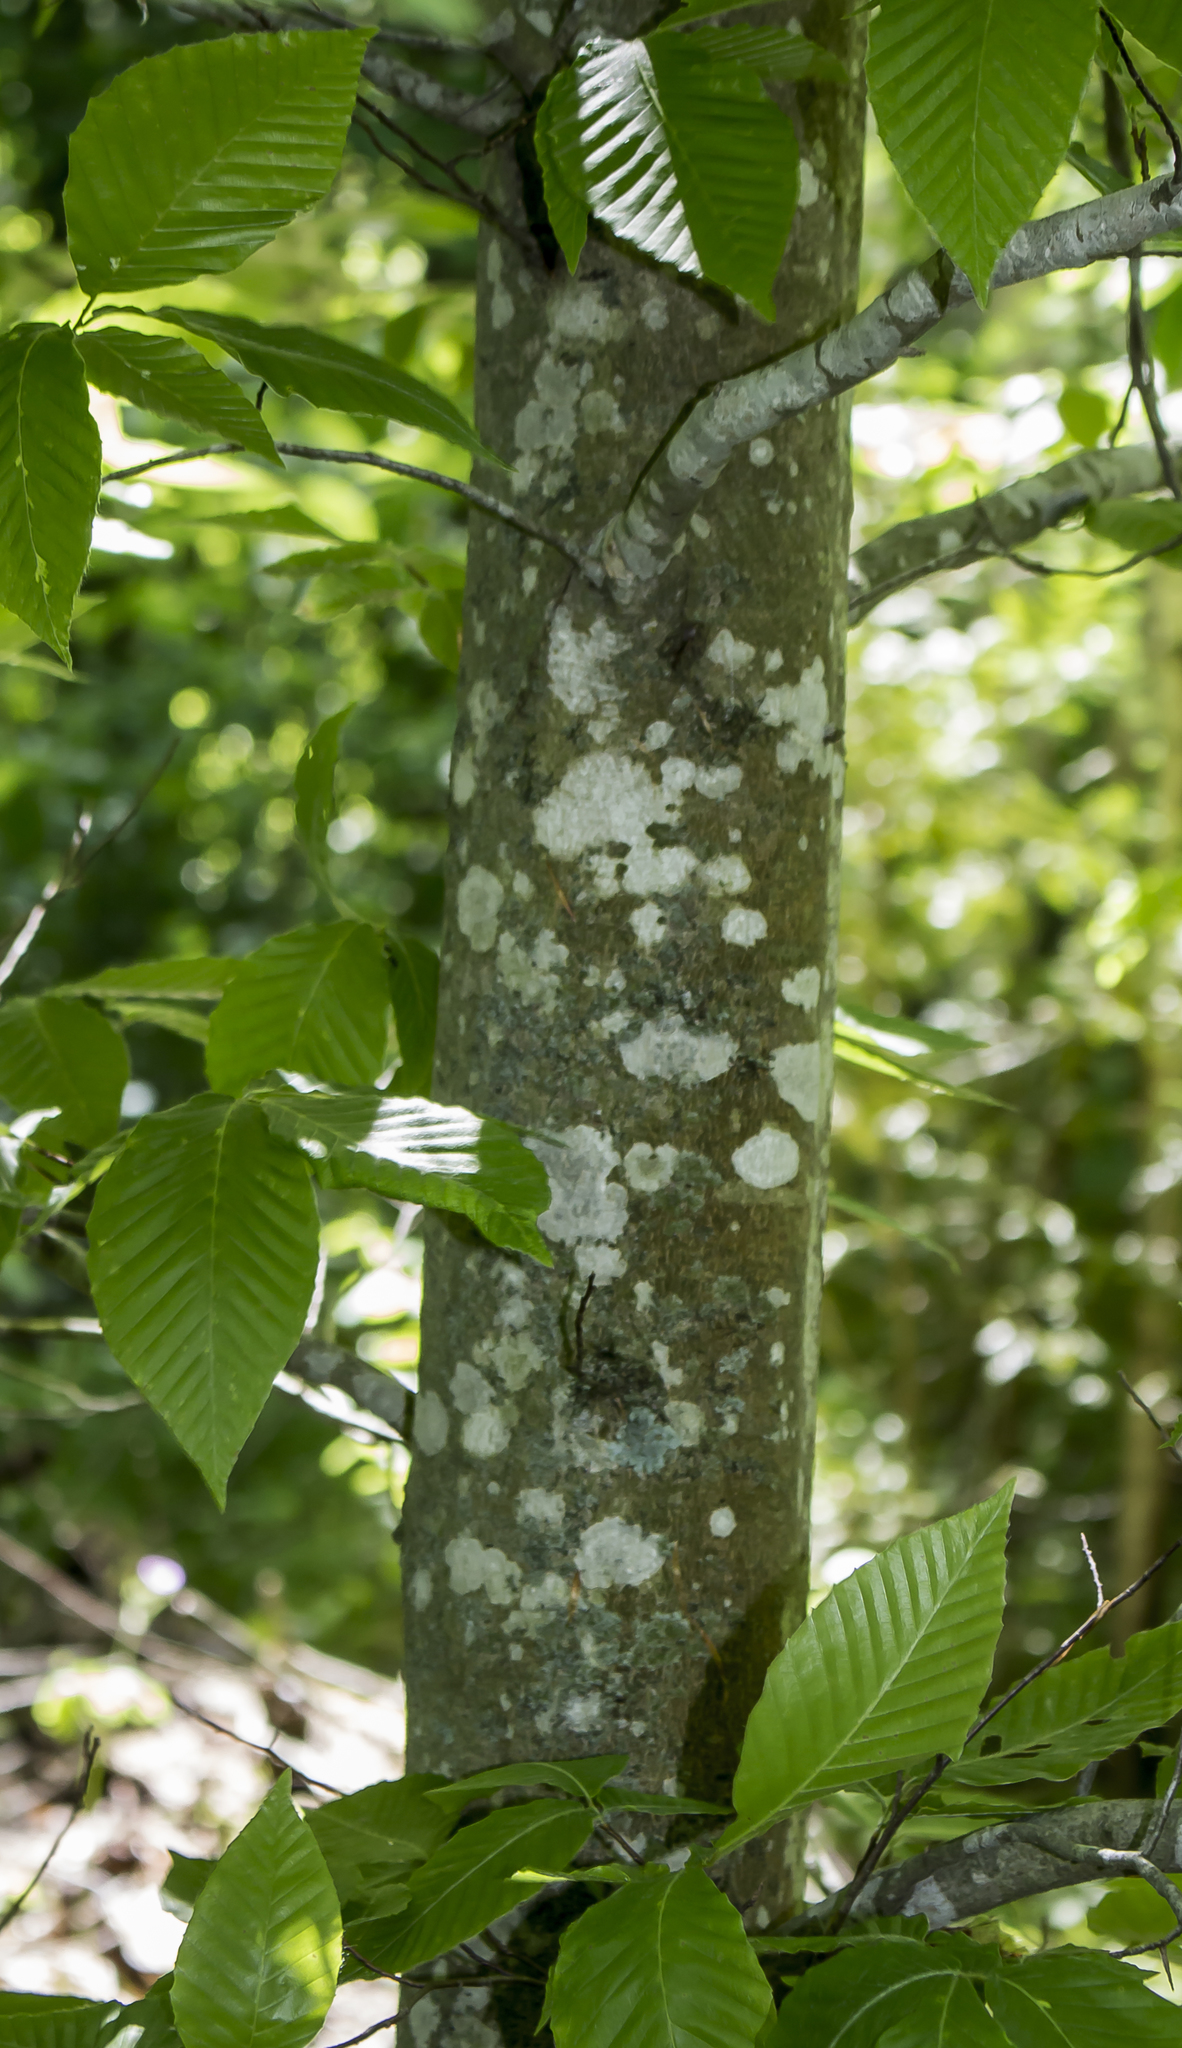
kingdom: Plantae
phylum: Tracheophyta
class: Magnoliopsida
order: Fagales
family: Fagaceae
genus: Fagus
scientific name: Fagus grandifolia
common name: American beech
